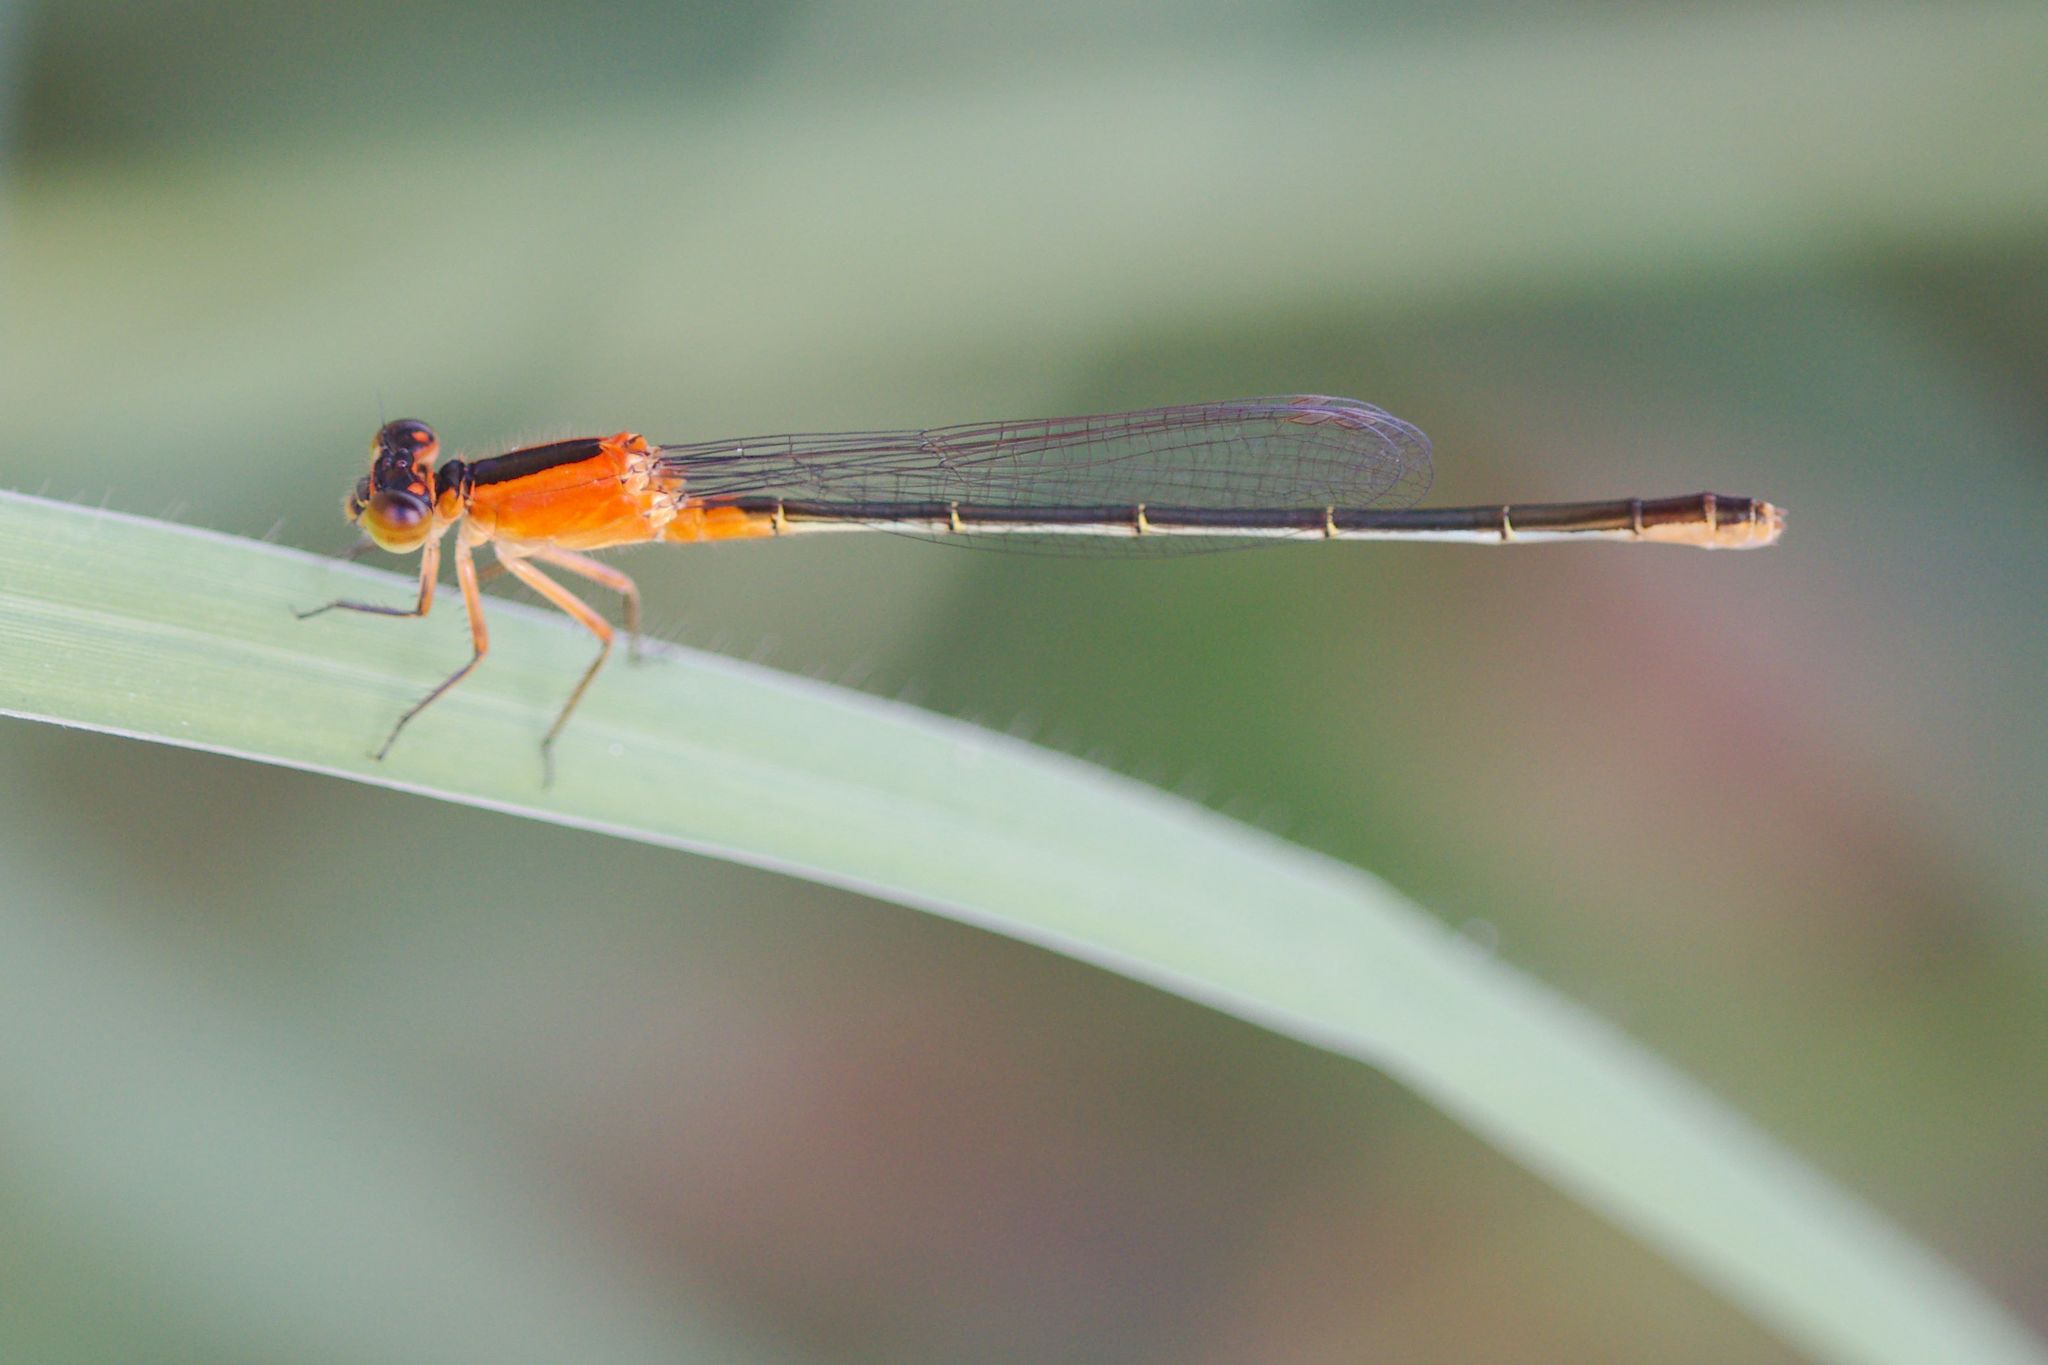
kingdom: Animalia
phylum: Arthropoda
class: Insecta
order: Odonata
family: Coenagrionidae
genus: Ischnura
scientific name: Ischnura ramburii
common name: Rambur's forktail
